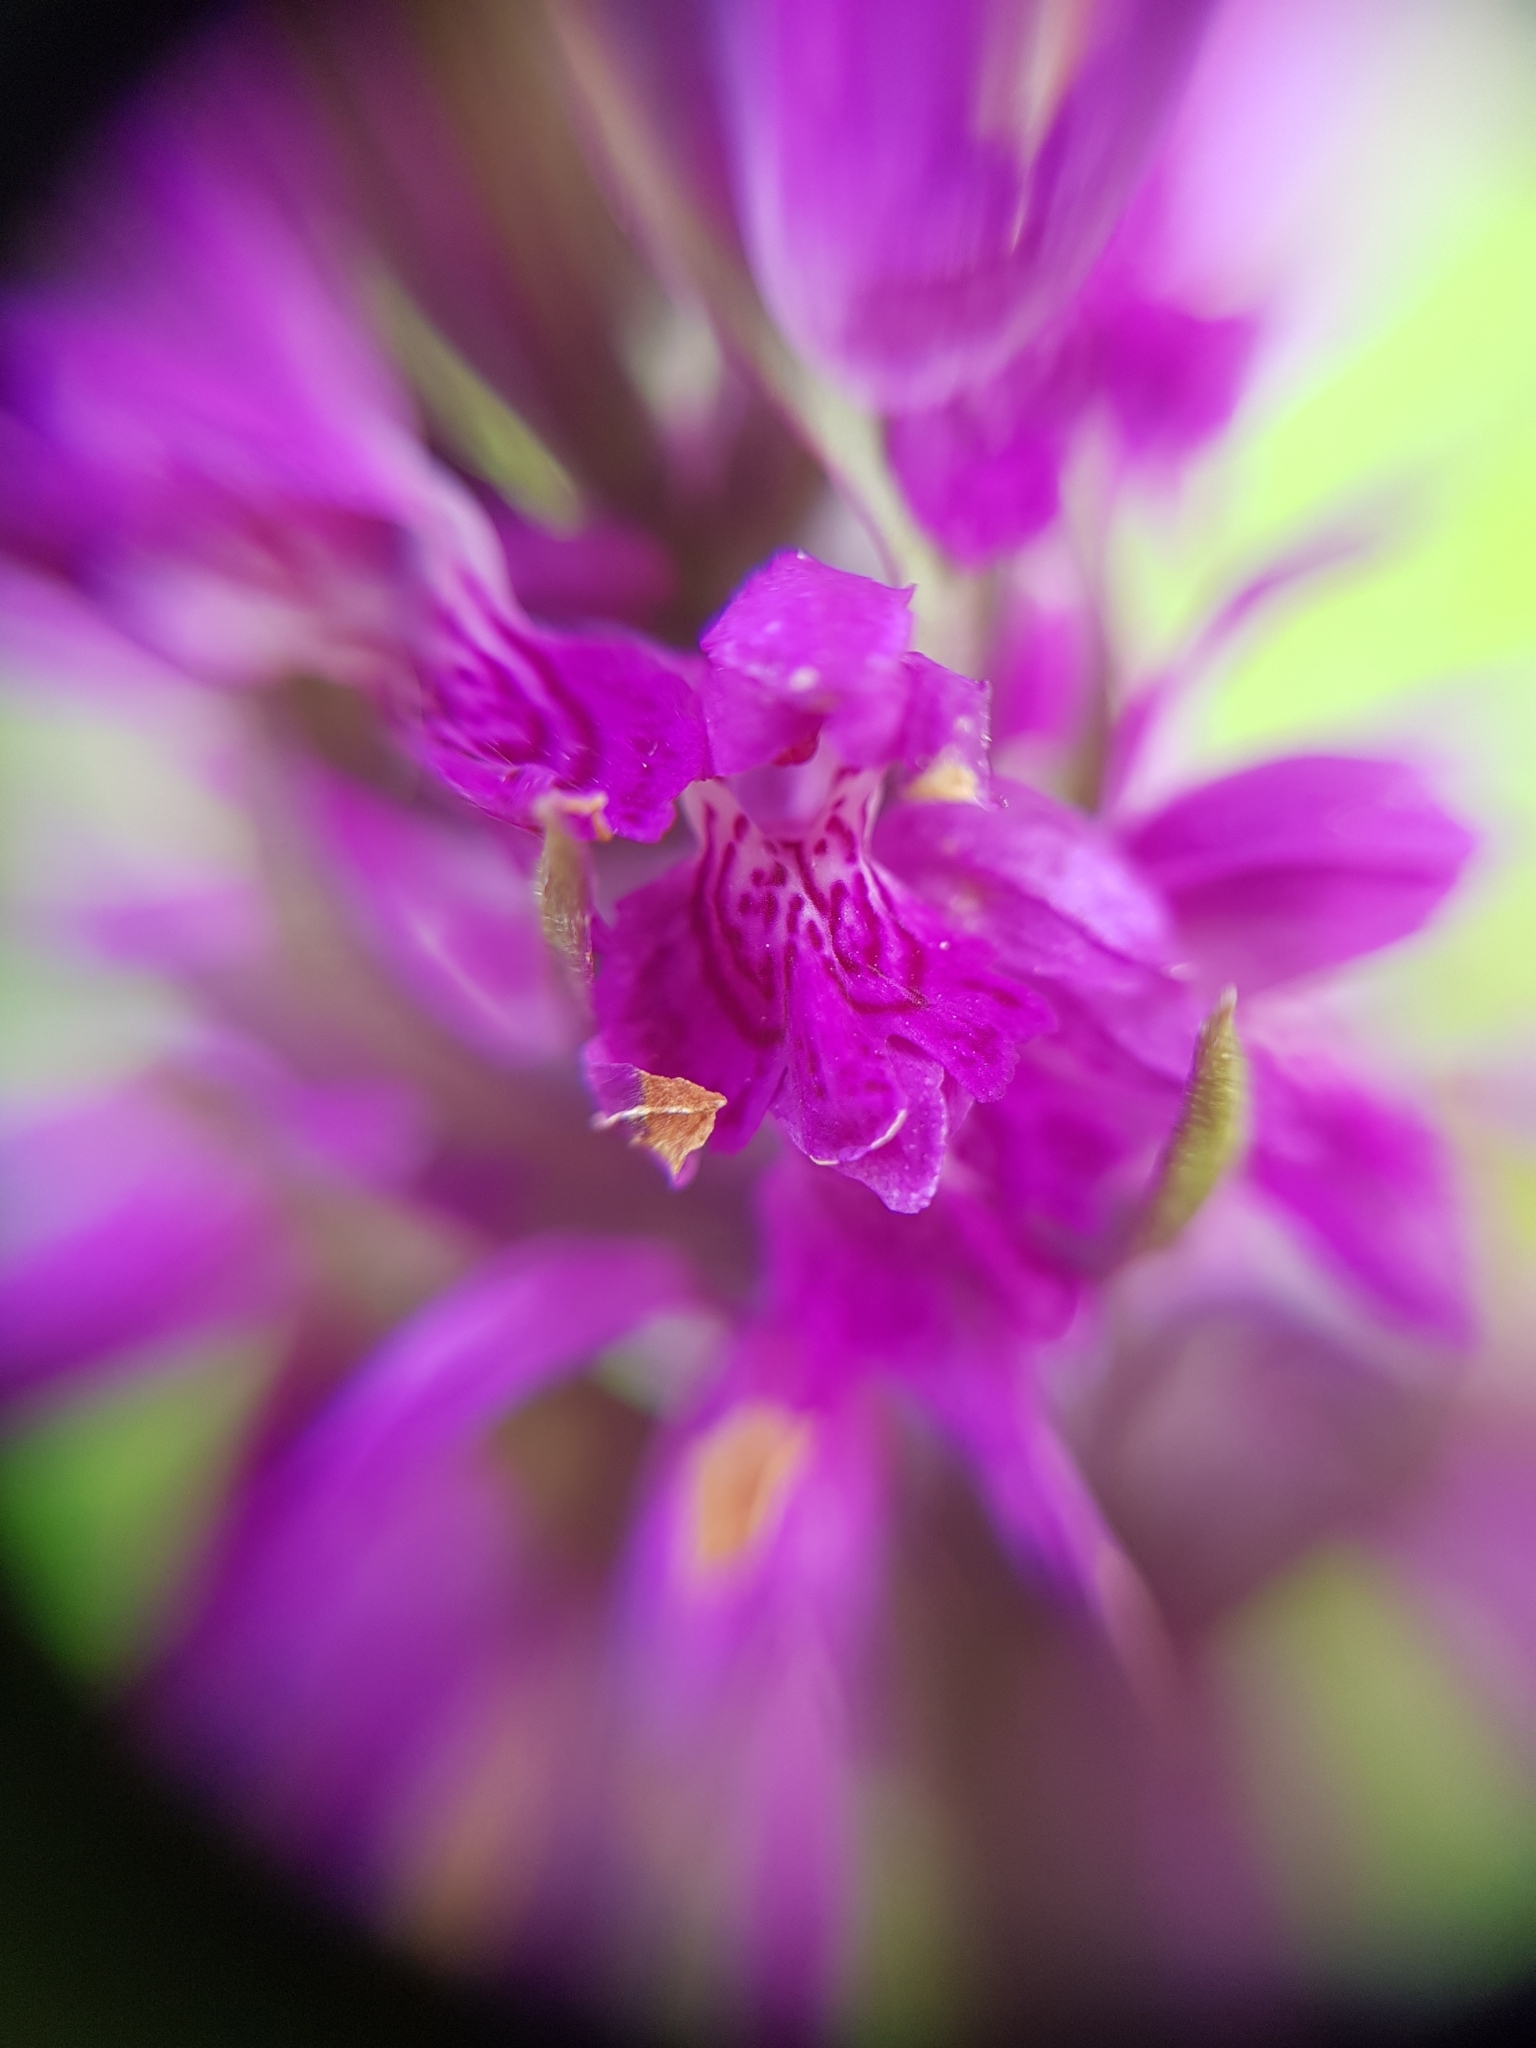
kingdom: Plantae
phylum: Tracheophyta
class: Liliopsida
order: Asparagales
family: Orchidaceae
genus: Dactylorhiza
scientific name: Dactylorhiza majalis
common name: Marsh orchid
